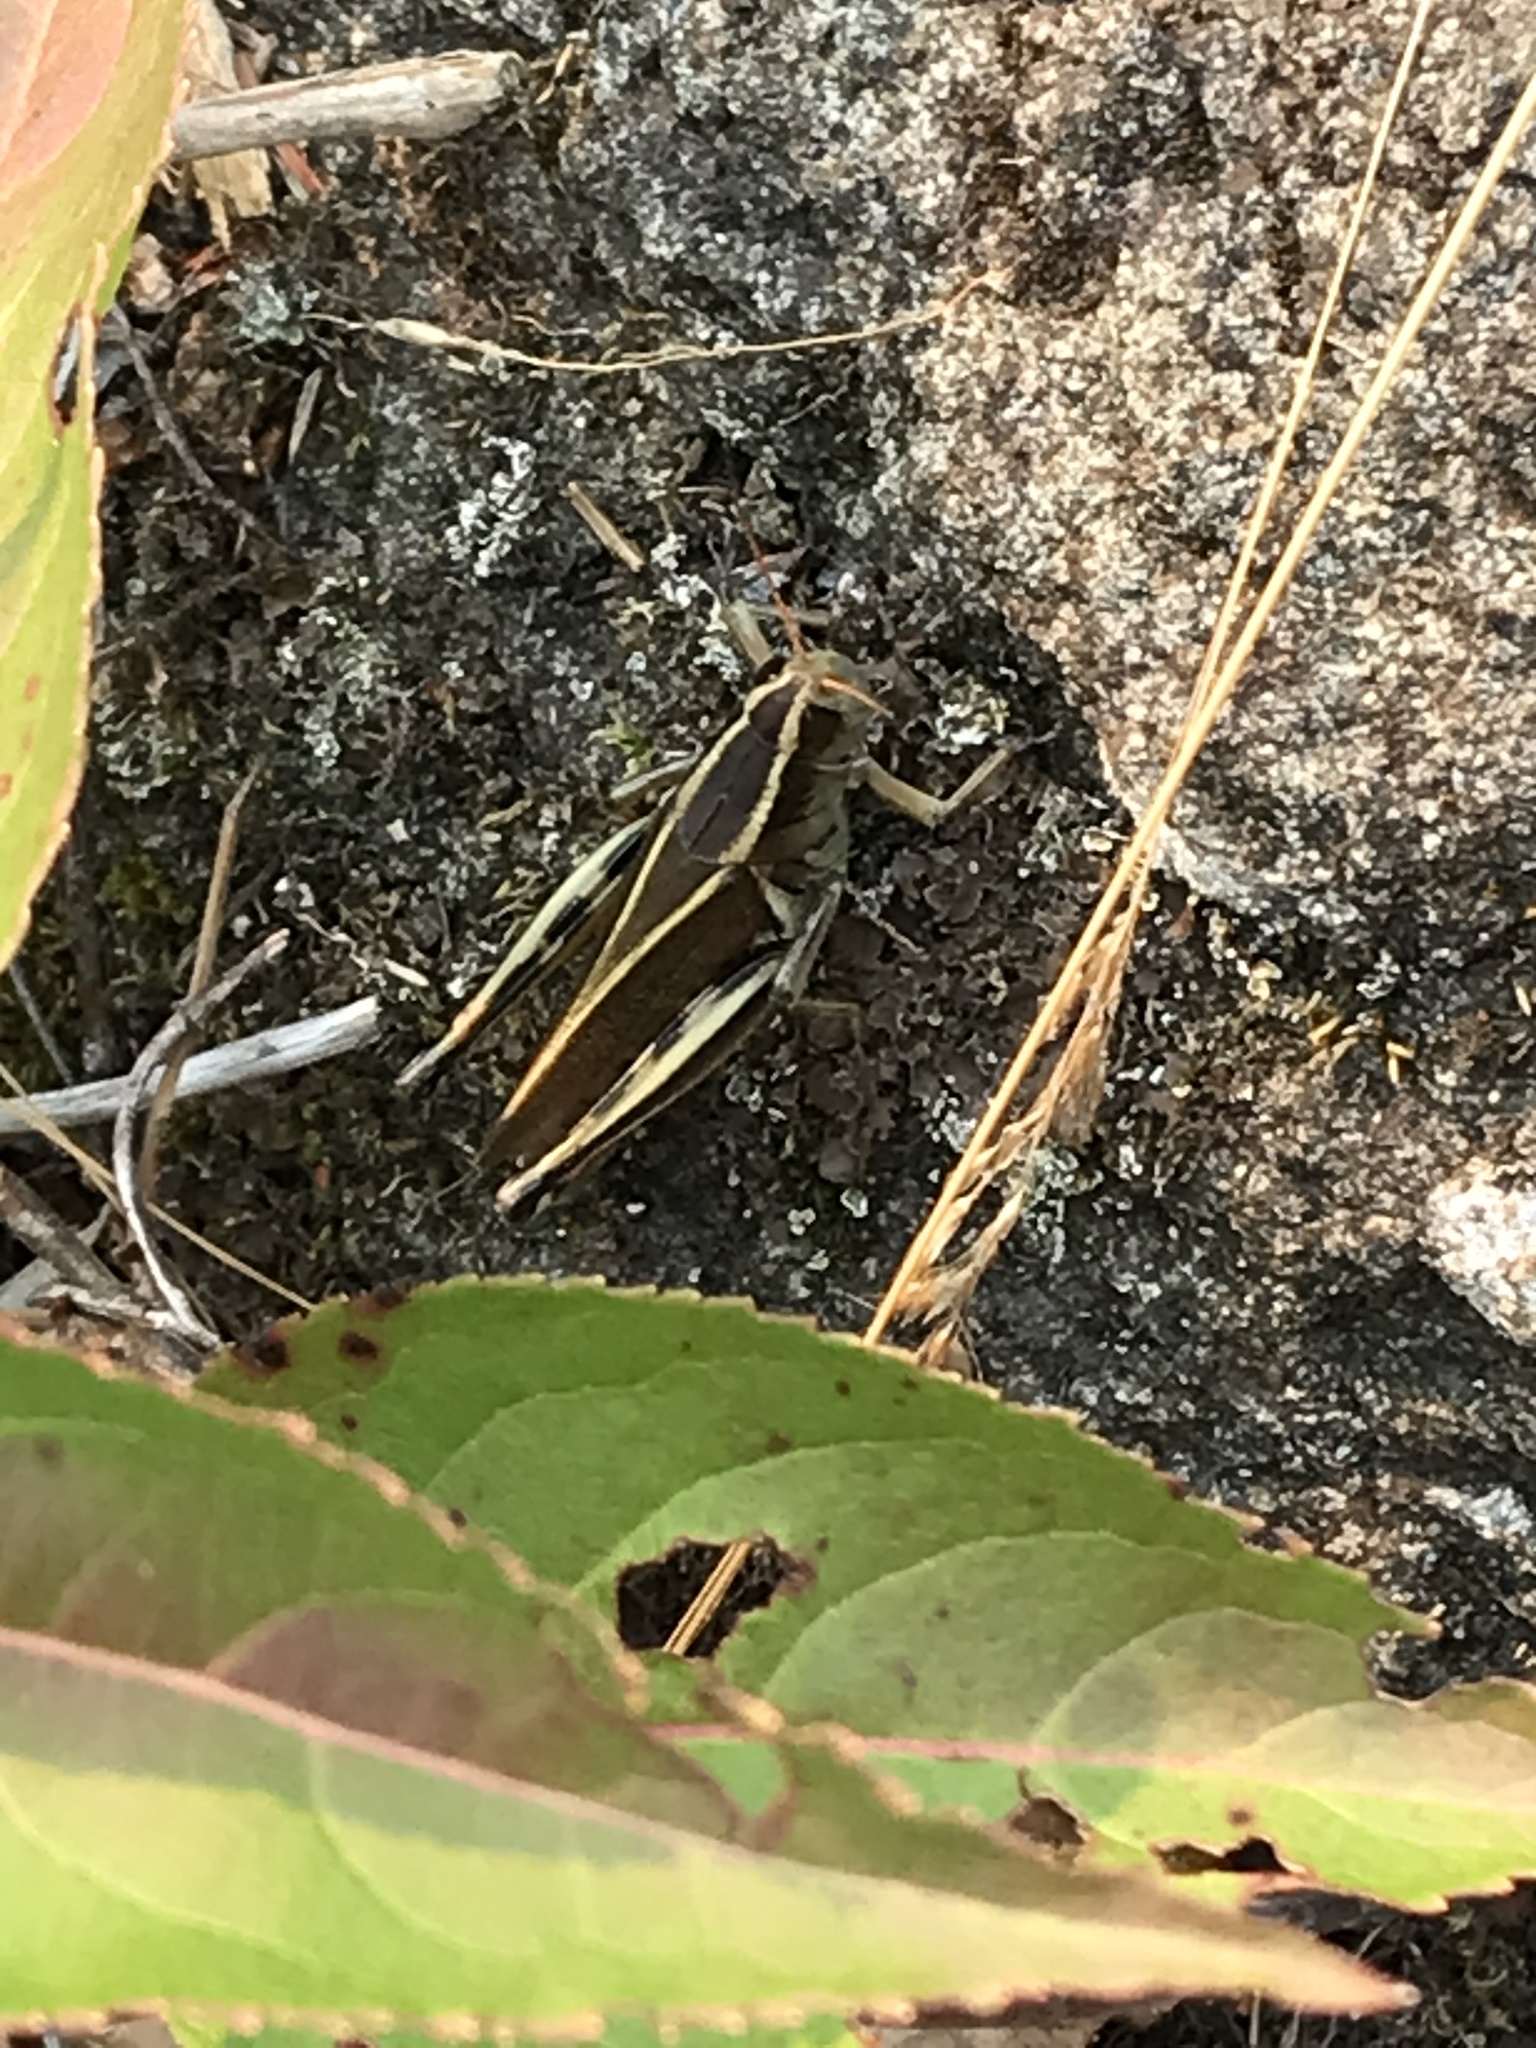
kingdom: Animalia
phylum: Arthropoda
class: Insecta
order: Orthoptera
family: Acrididae
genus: Melanoplus
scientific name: Melanoplus bivittatus
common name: Two-striped grasshopper
